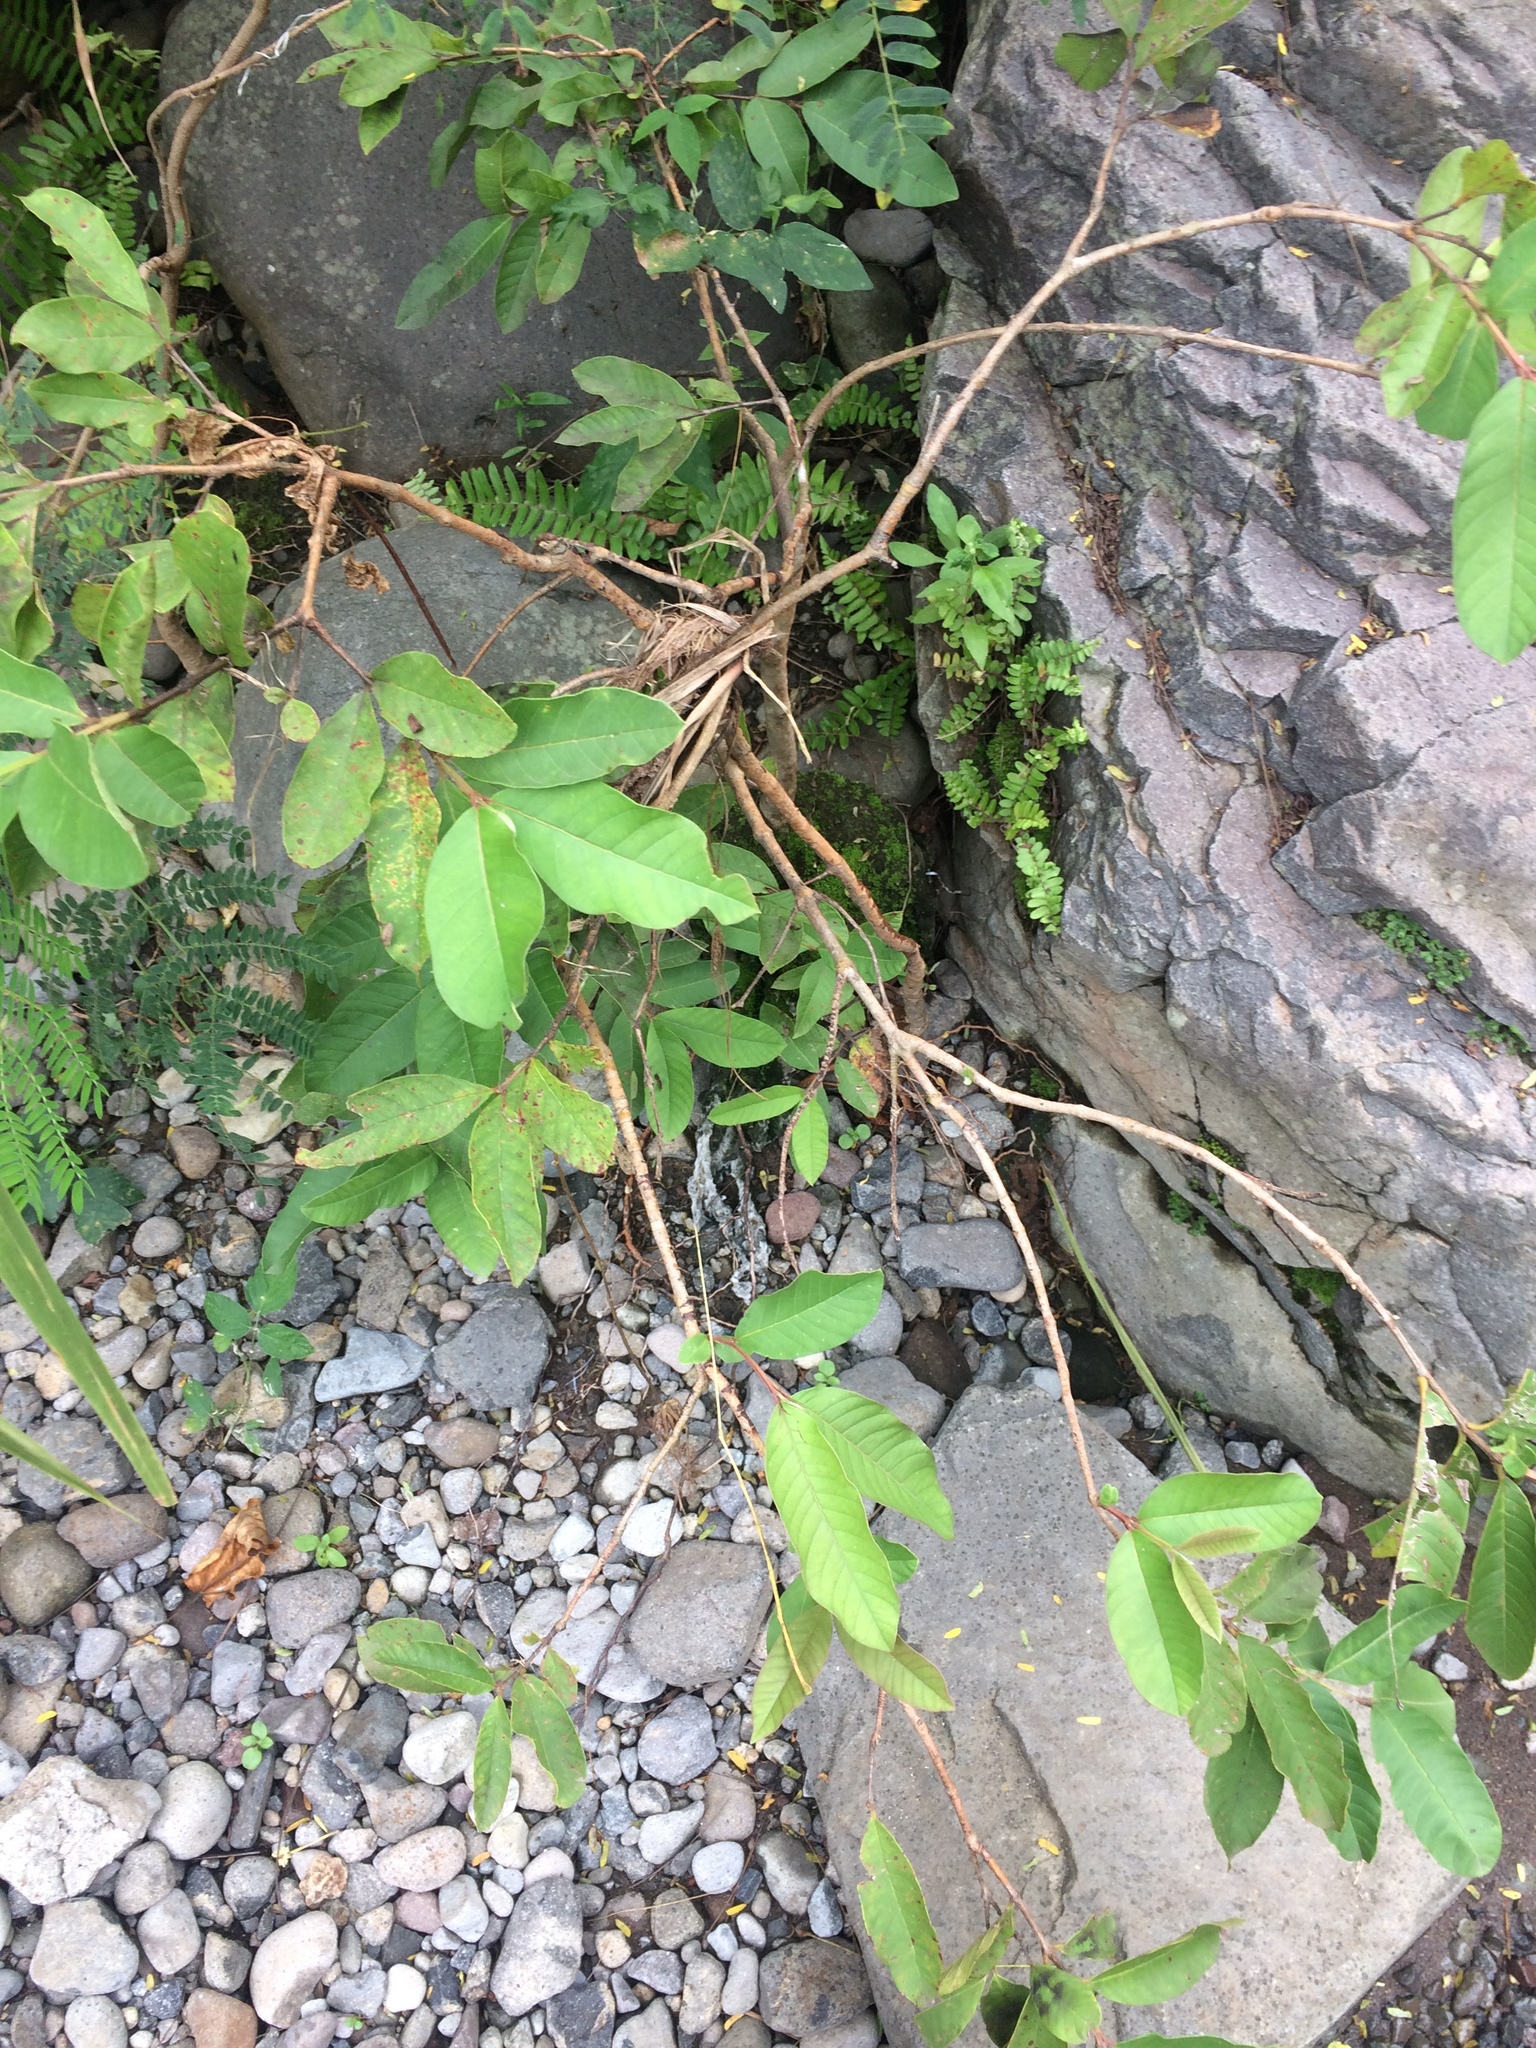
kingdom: Plantae
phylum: Tracheophyta
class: Magnoliopsida
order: Myrtales
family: Myrtaceae
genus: Psidium
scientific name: Psidium guajava
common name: Guava
